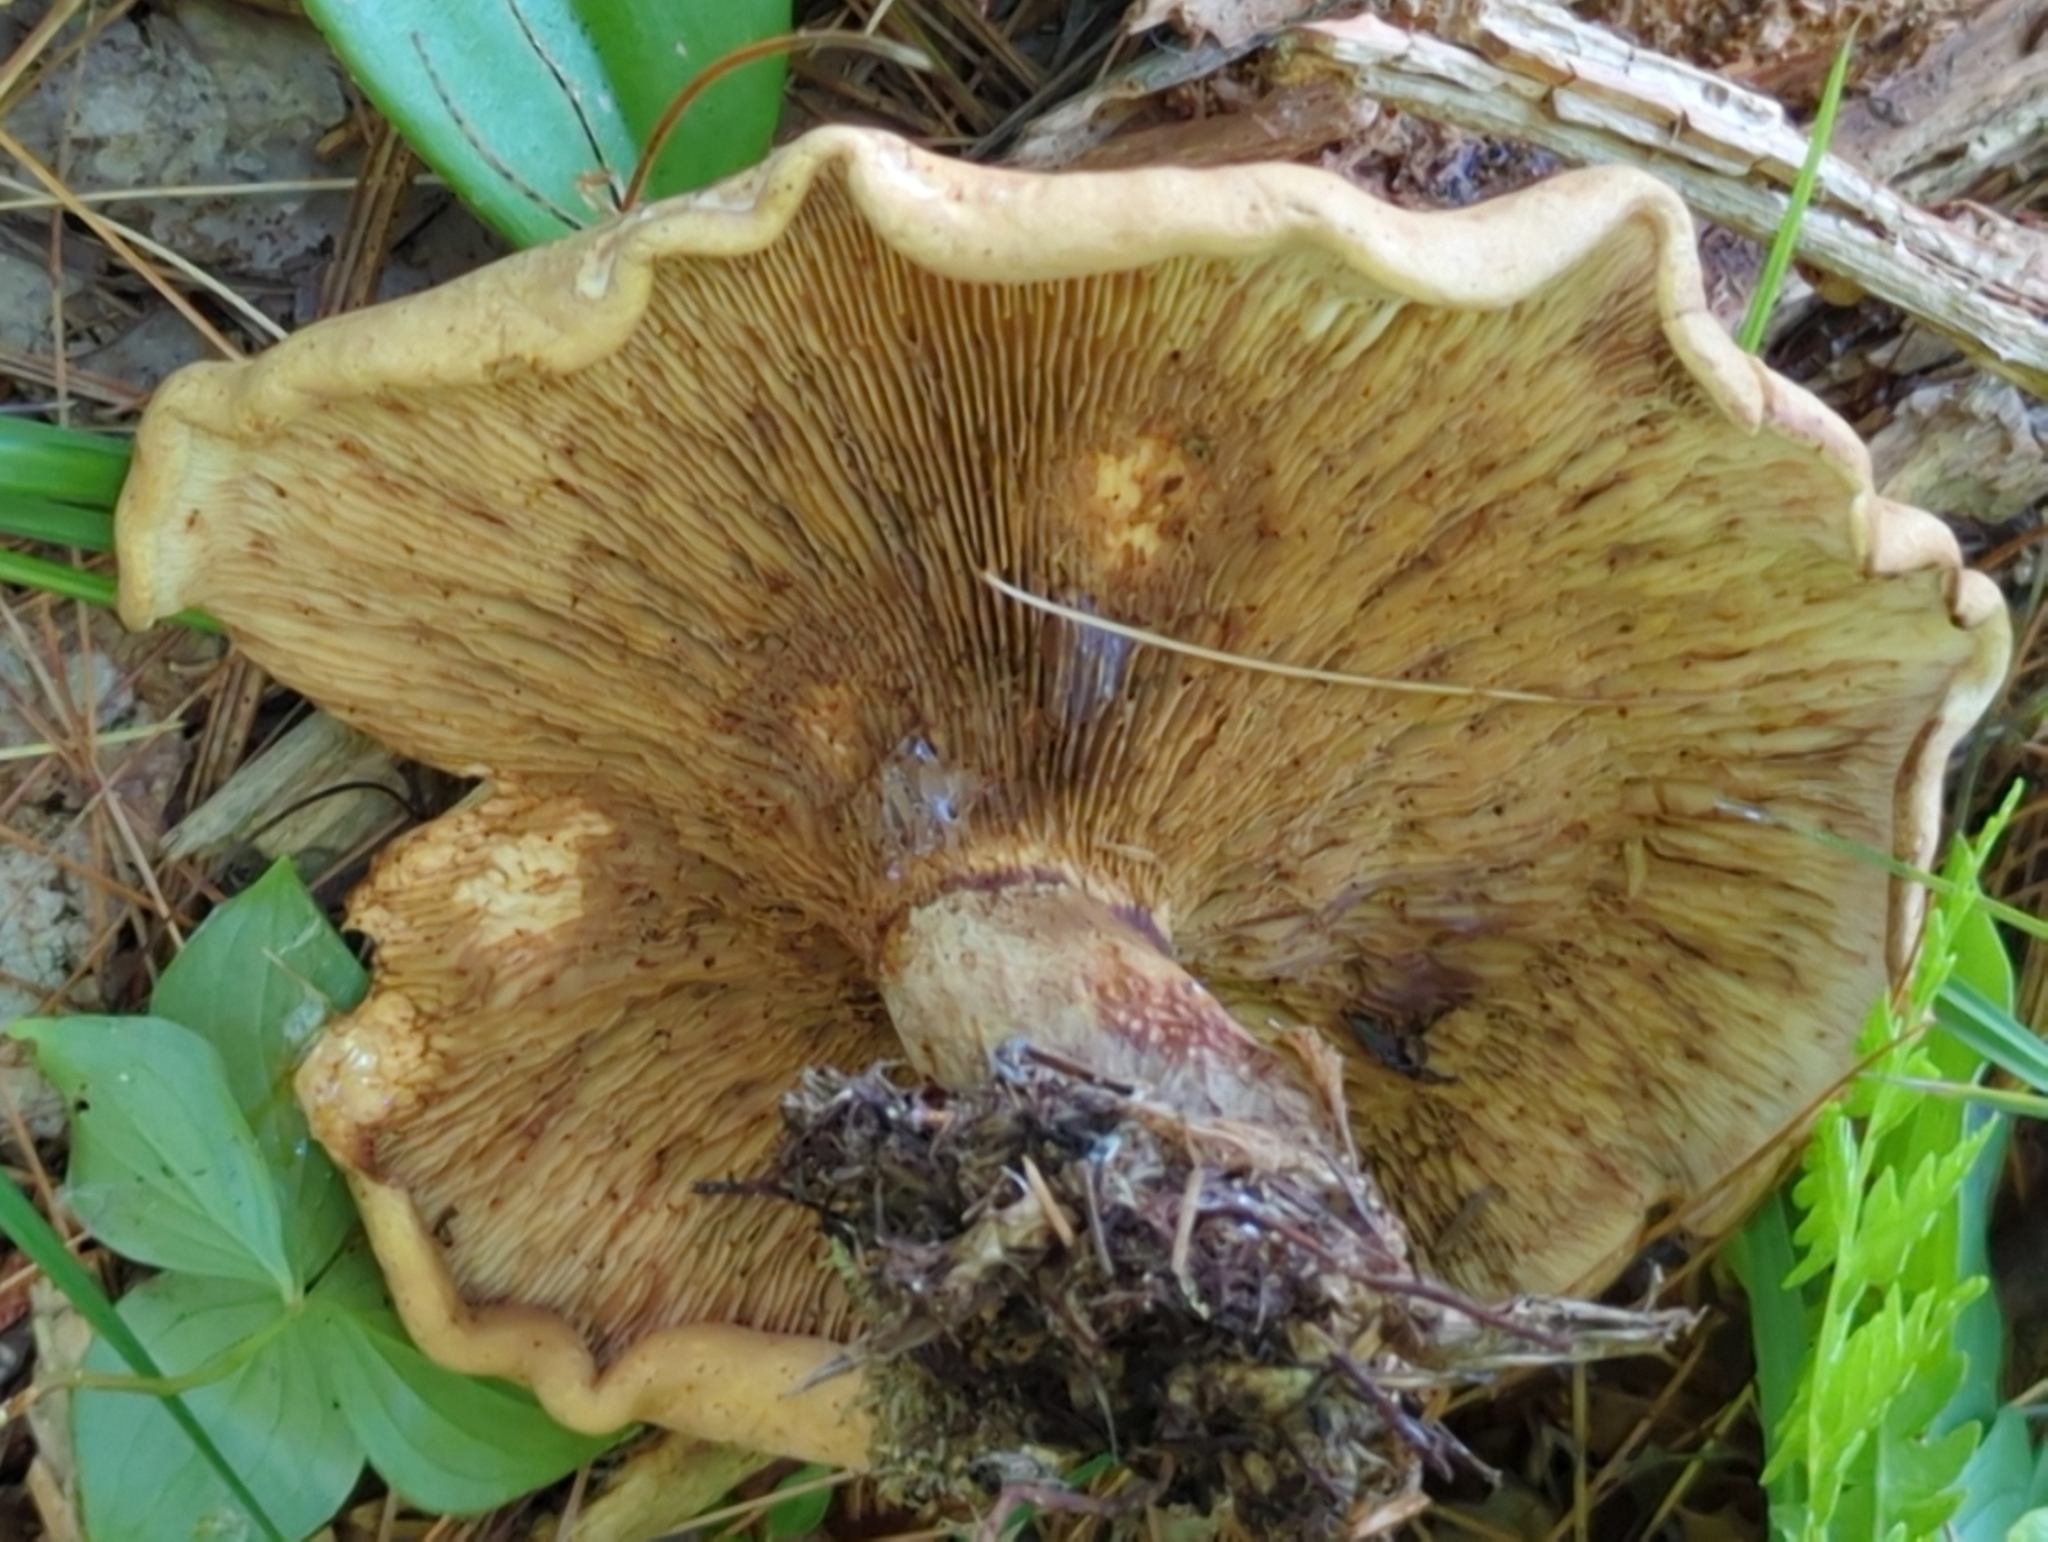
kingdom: Fungi
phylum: Basidiomycota
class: Agaricomycetes
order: Boletales
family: Paxillaceae
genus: Paxillus
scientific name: Paxillus involutus
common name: Brown roll rim
